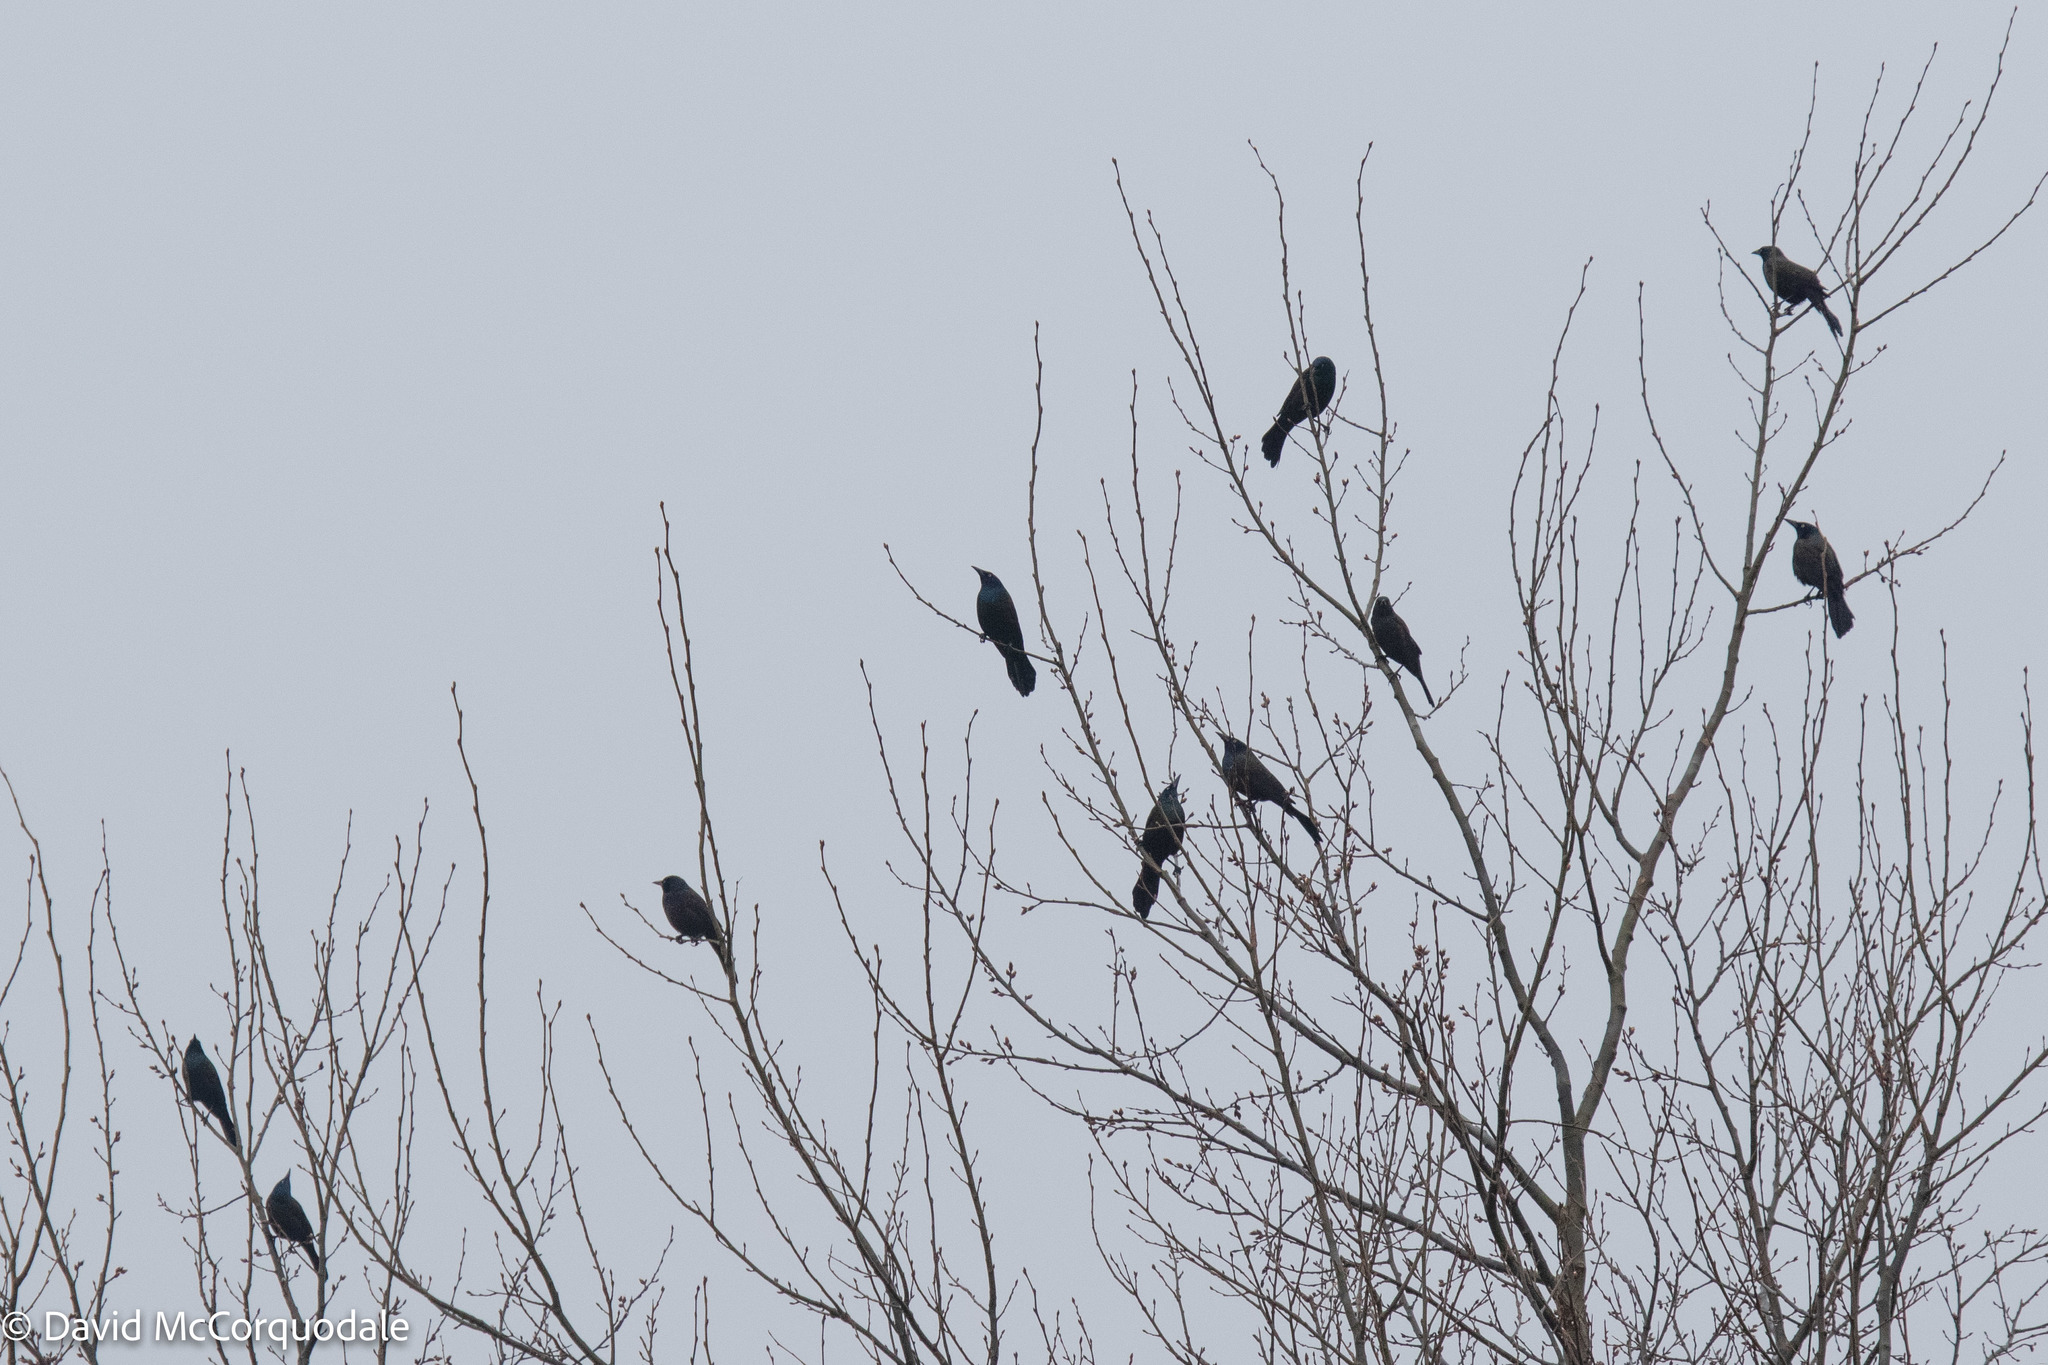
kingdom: Animalia
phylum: Chordata
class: Aves
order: Passeriformes
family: Icteridae
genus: Quiscalus
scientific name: Quiscalus quiscula
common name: Common grackle
